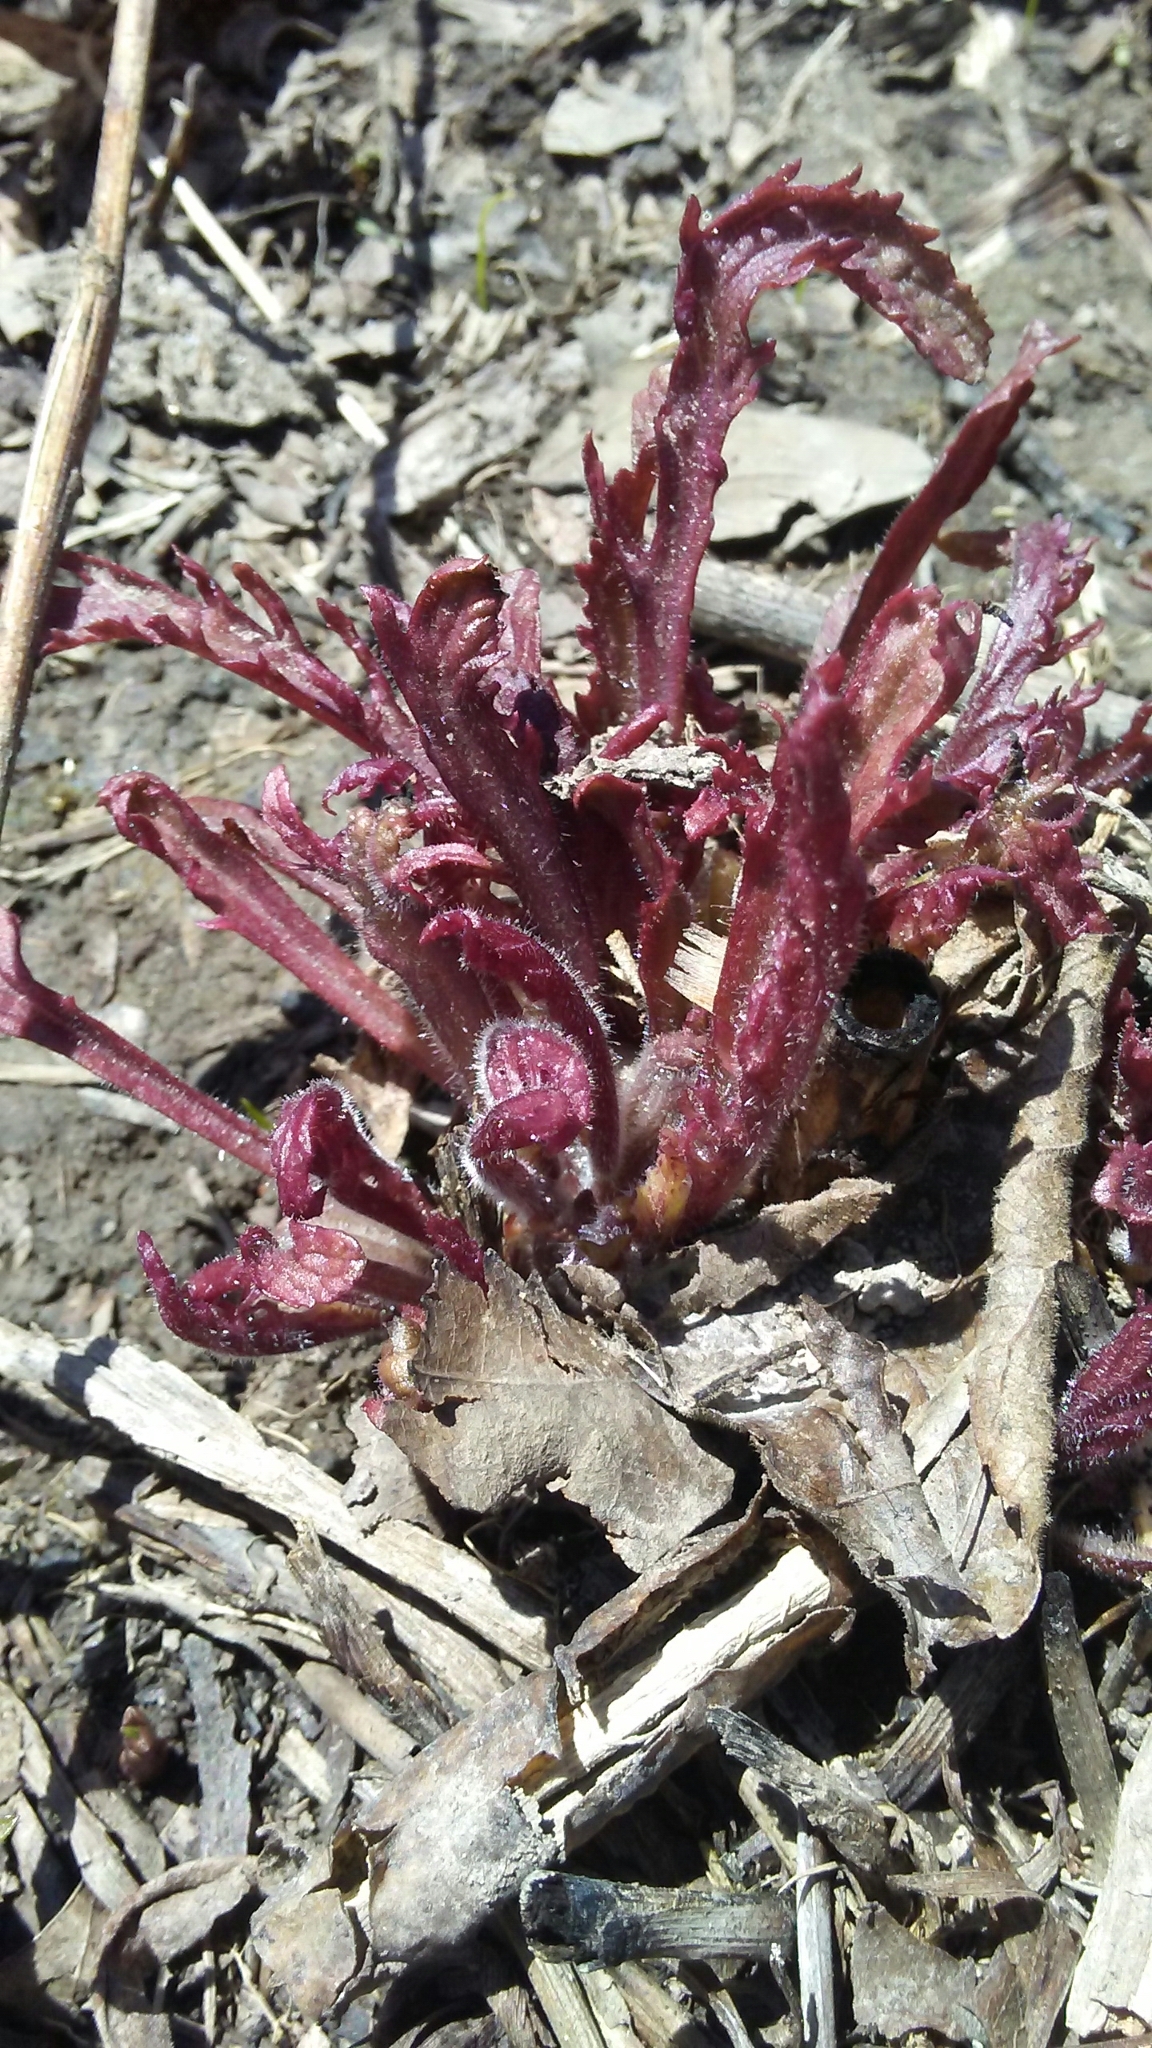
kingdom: Plantae
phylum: Tracheophyta
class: Magnoliopsida
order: Lamiales
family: Orobanchaceae
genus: Dasistoma
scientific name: Dasistoma macrophyllum
